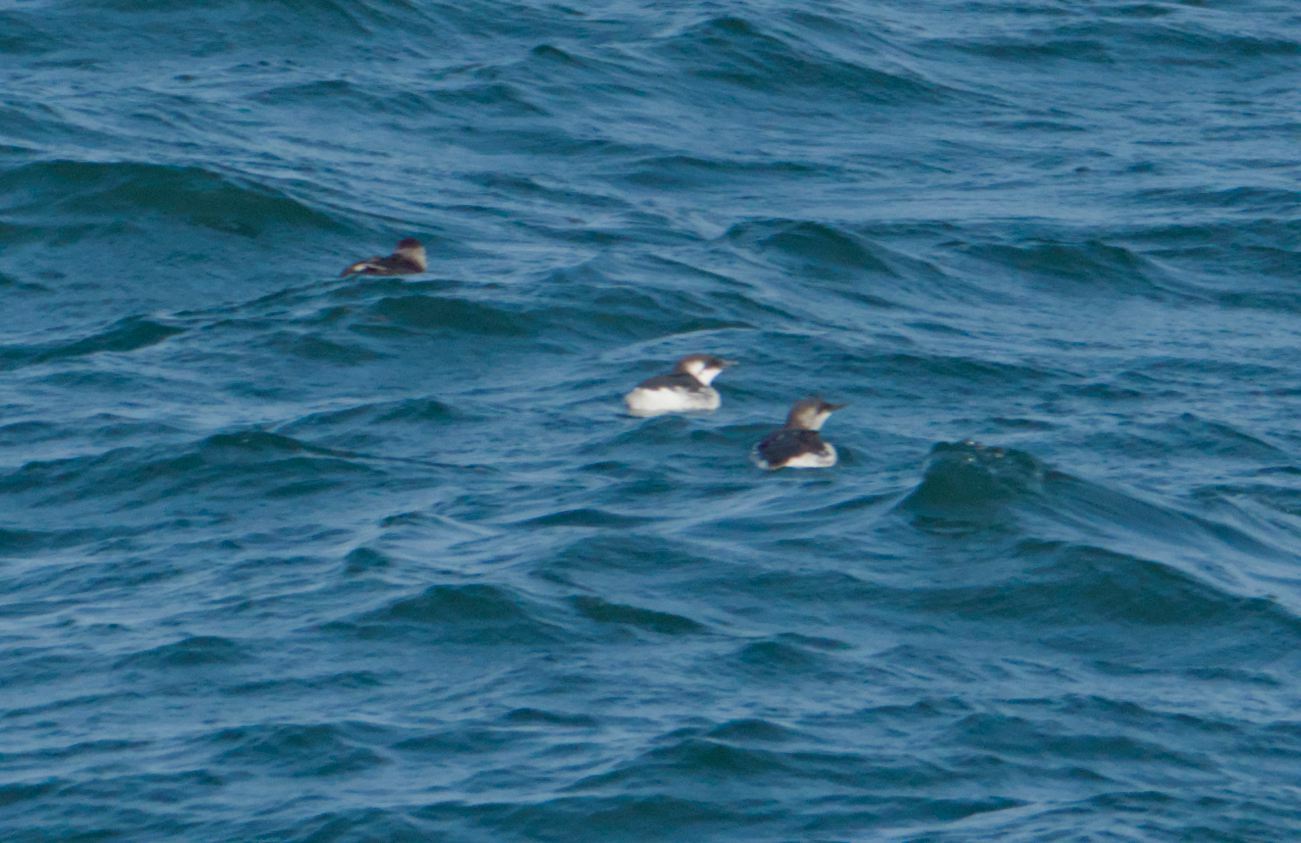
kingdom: Animalia
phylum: Chordata
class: Aves
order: Charadriiformes
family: Alcidae
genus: Uria
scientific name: Uria aalge
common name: Common murre
